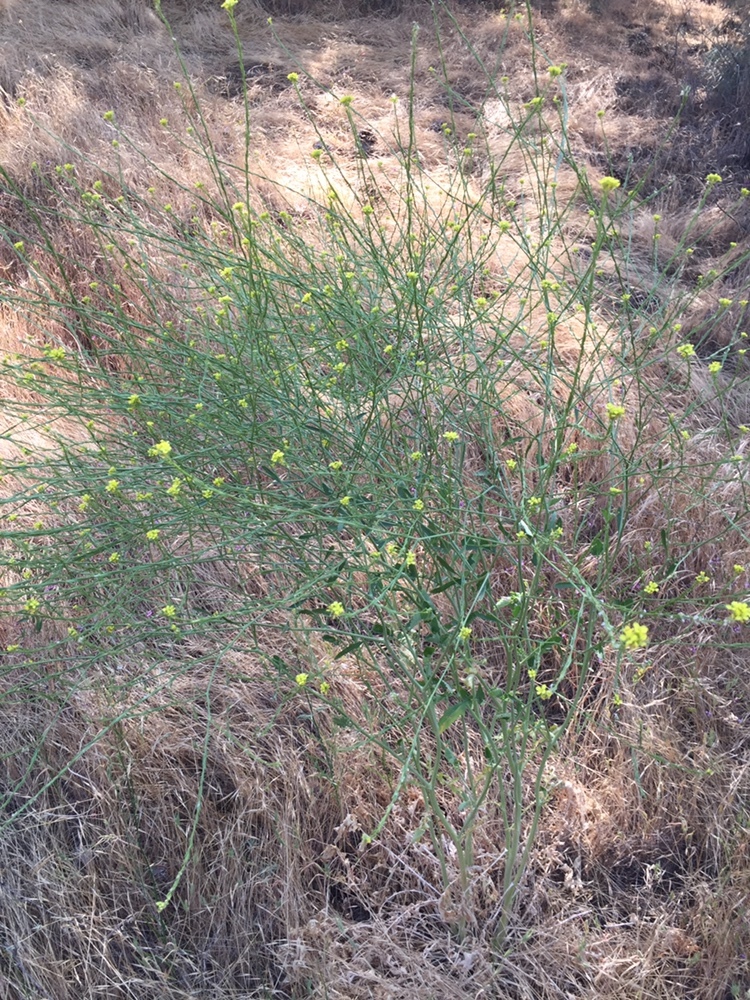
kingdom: Plantae
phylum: Tracheophyta
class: Magnoliopsida
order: Brassicales
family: Brassicaceae
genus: Hirschfeldia
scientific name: Hirschfeldia incana
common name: Hoary mustard
